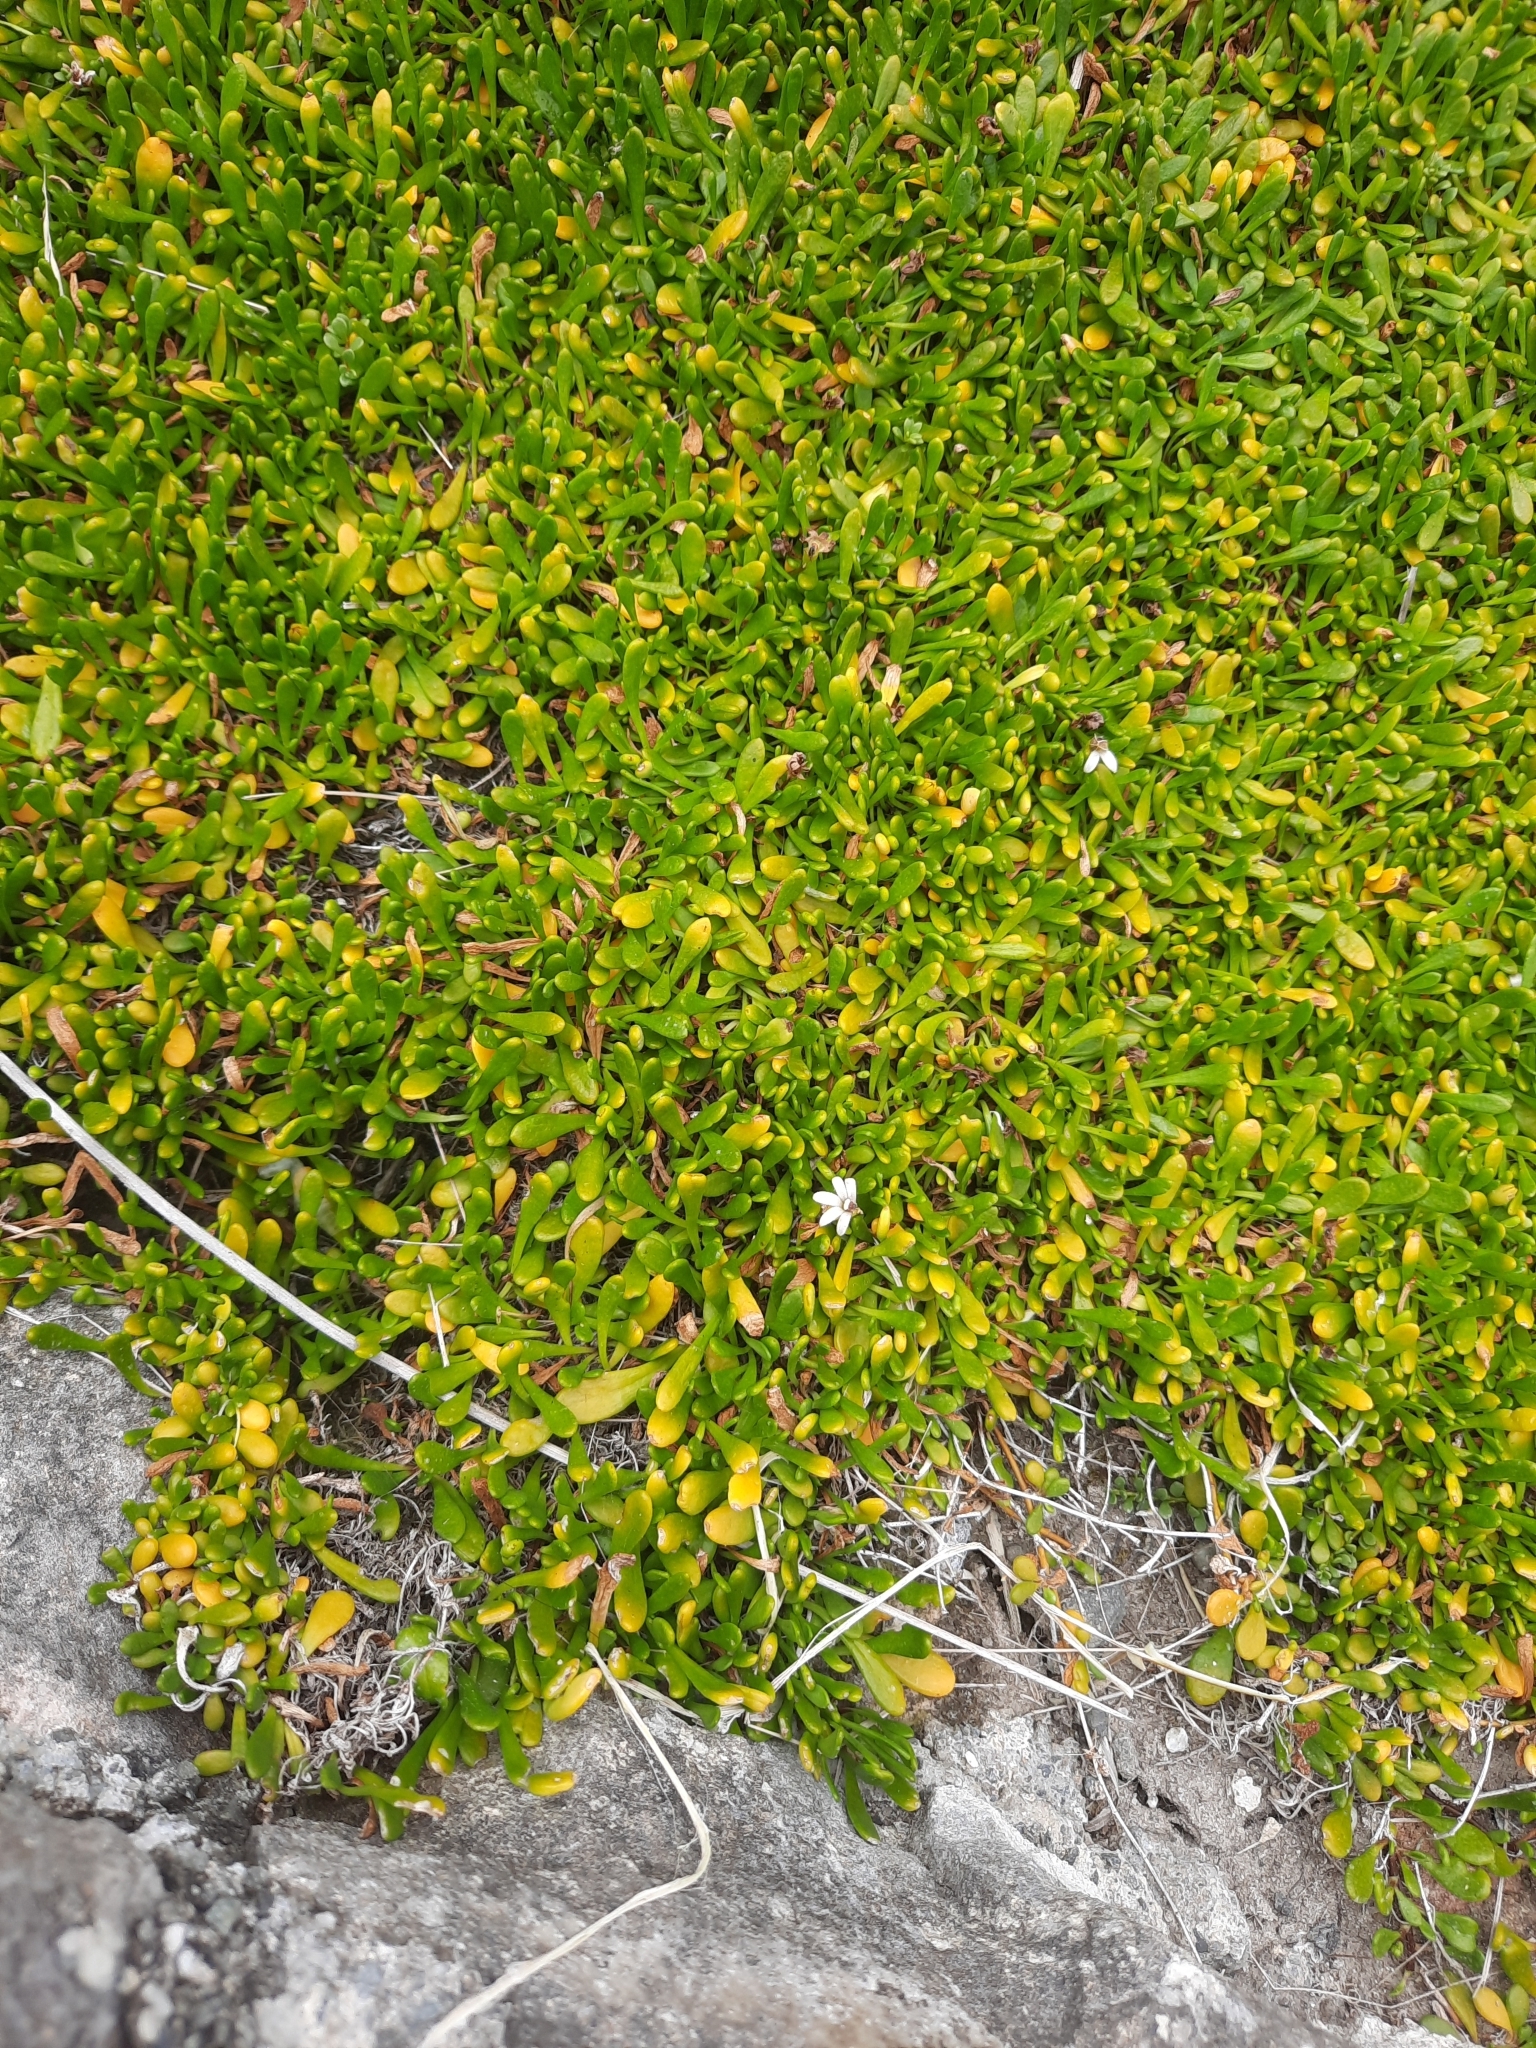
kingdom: Plantae
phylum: Tracheophyta
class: Magnoliopsida
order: Asterales
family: Goodeniaceae
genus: Goodenia
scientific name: Goodenia radicans
